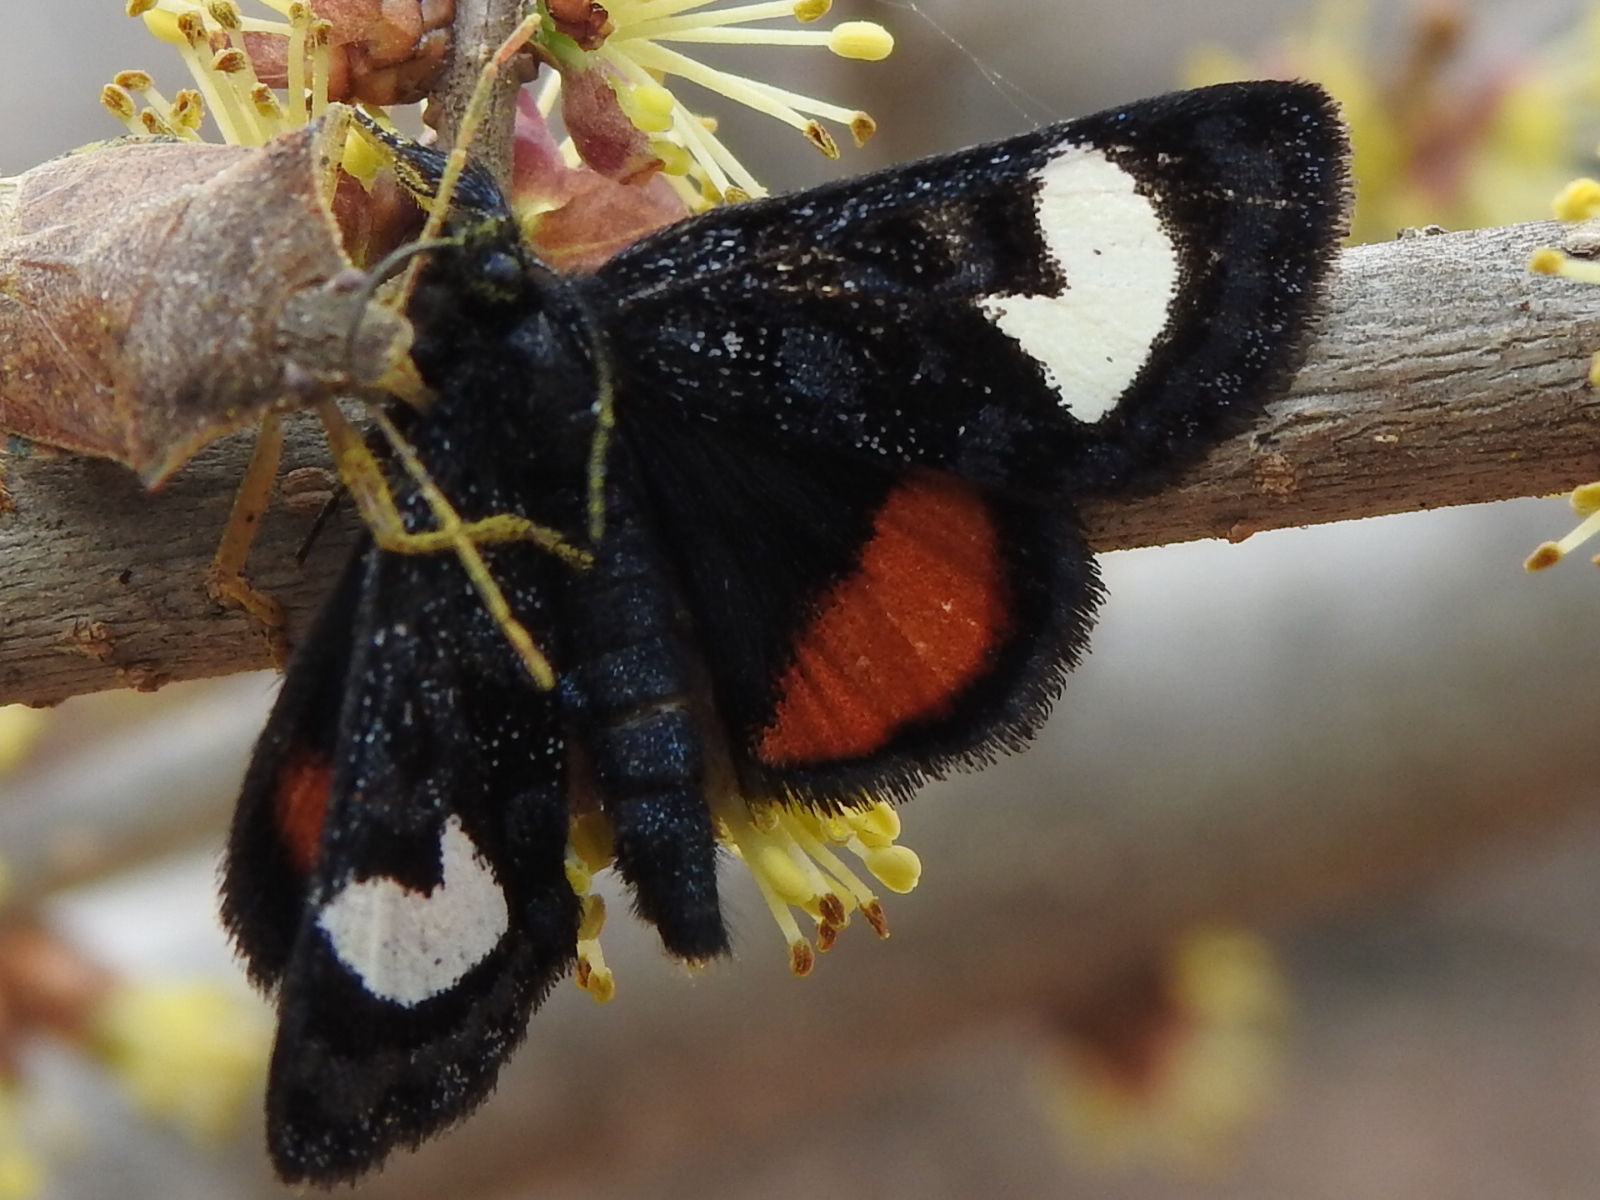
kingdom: Animalia
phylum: Arthropoda
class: Insecta
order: Lepidoptera
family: Noctuidae
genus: Psychomorpha
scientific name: Psychomorpha epimenis
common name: Grapevine epimenis moth
